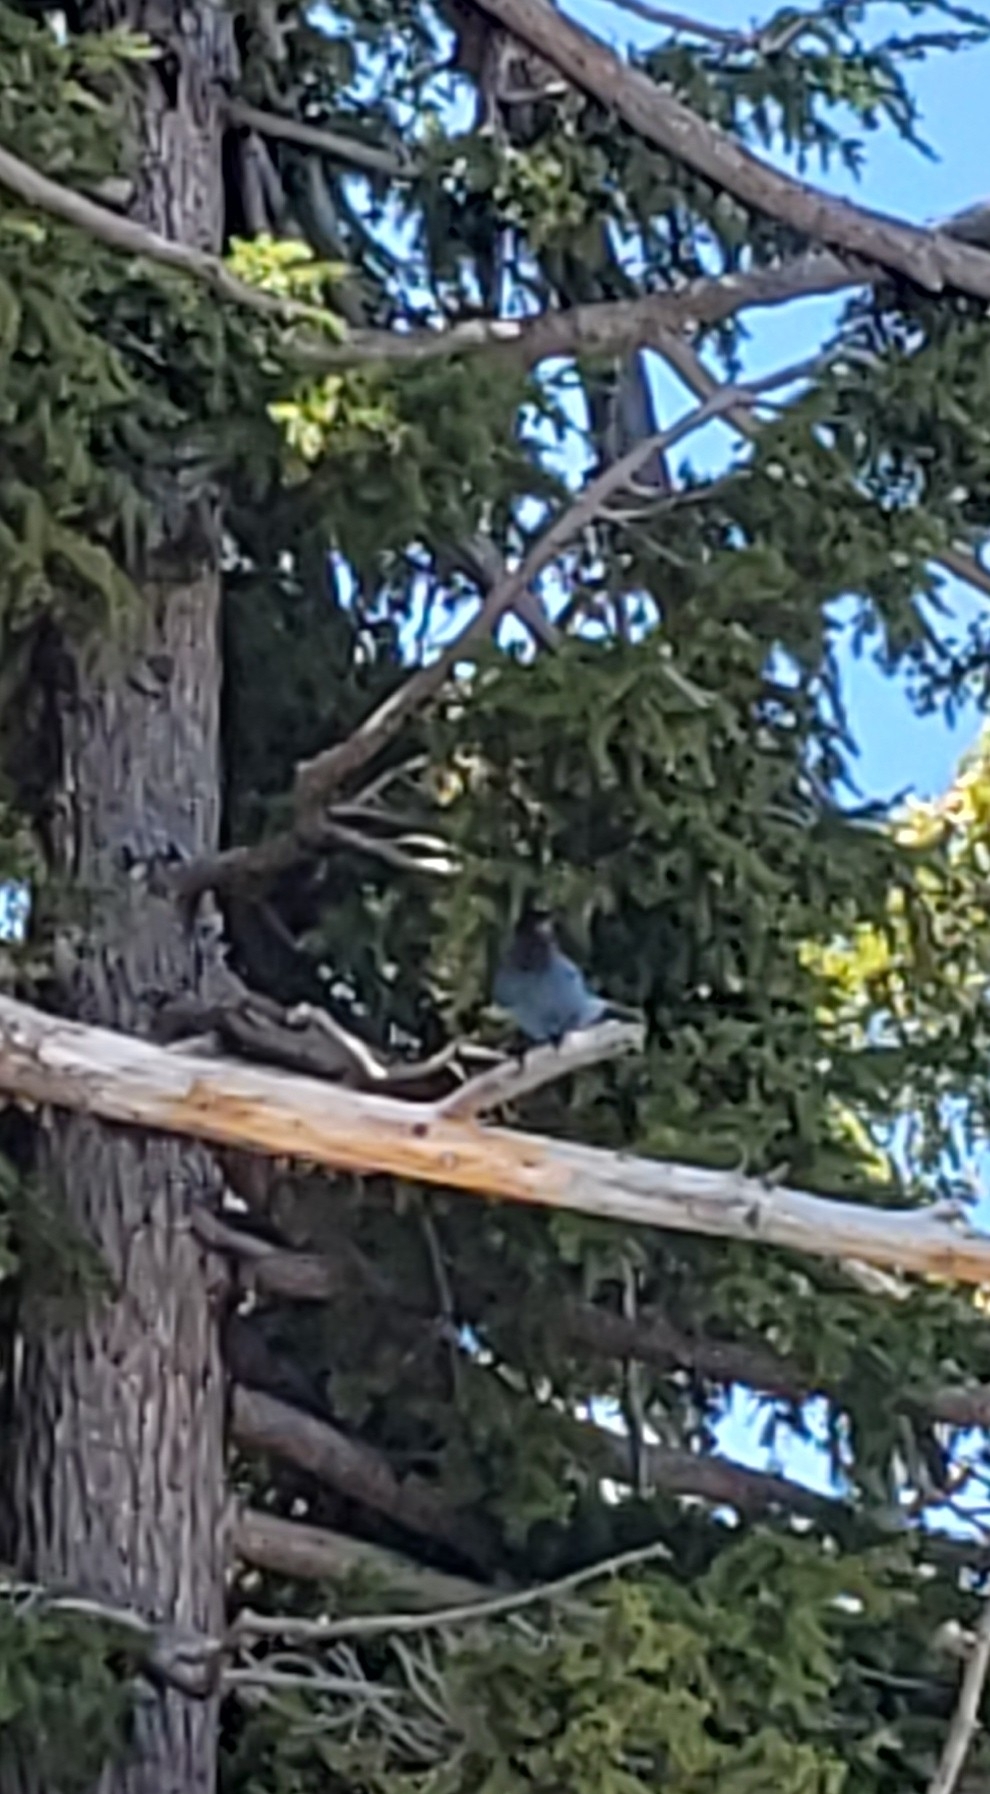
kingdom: Animalia
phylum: Chordata
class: Aves
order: Passeriformes
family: Corvidae
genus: Cyanocitta
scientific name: Cyanocitta stelleri
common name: Steller's jay
